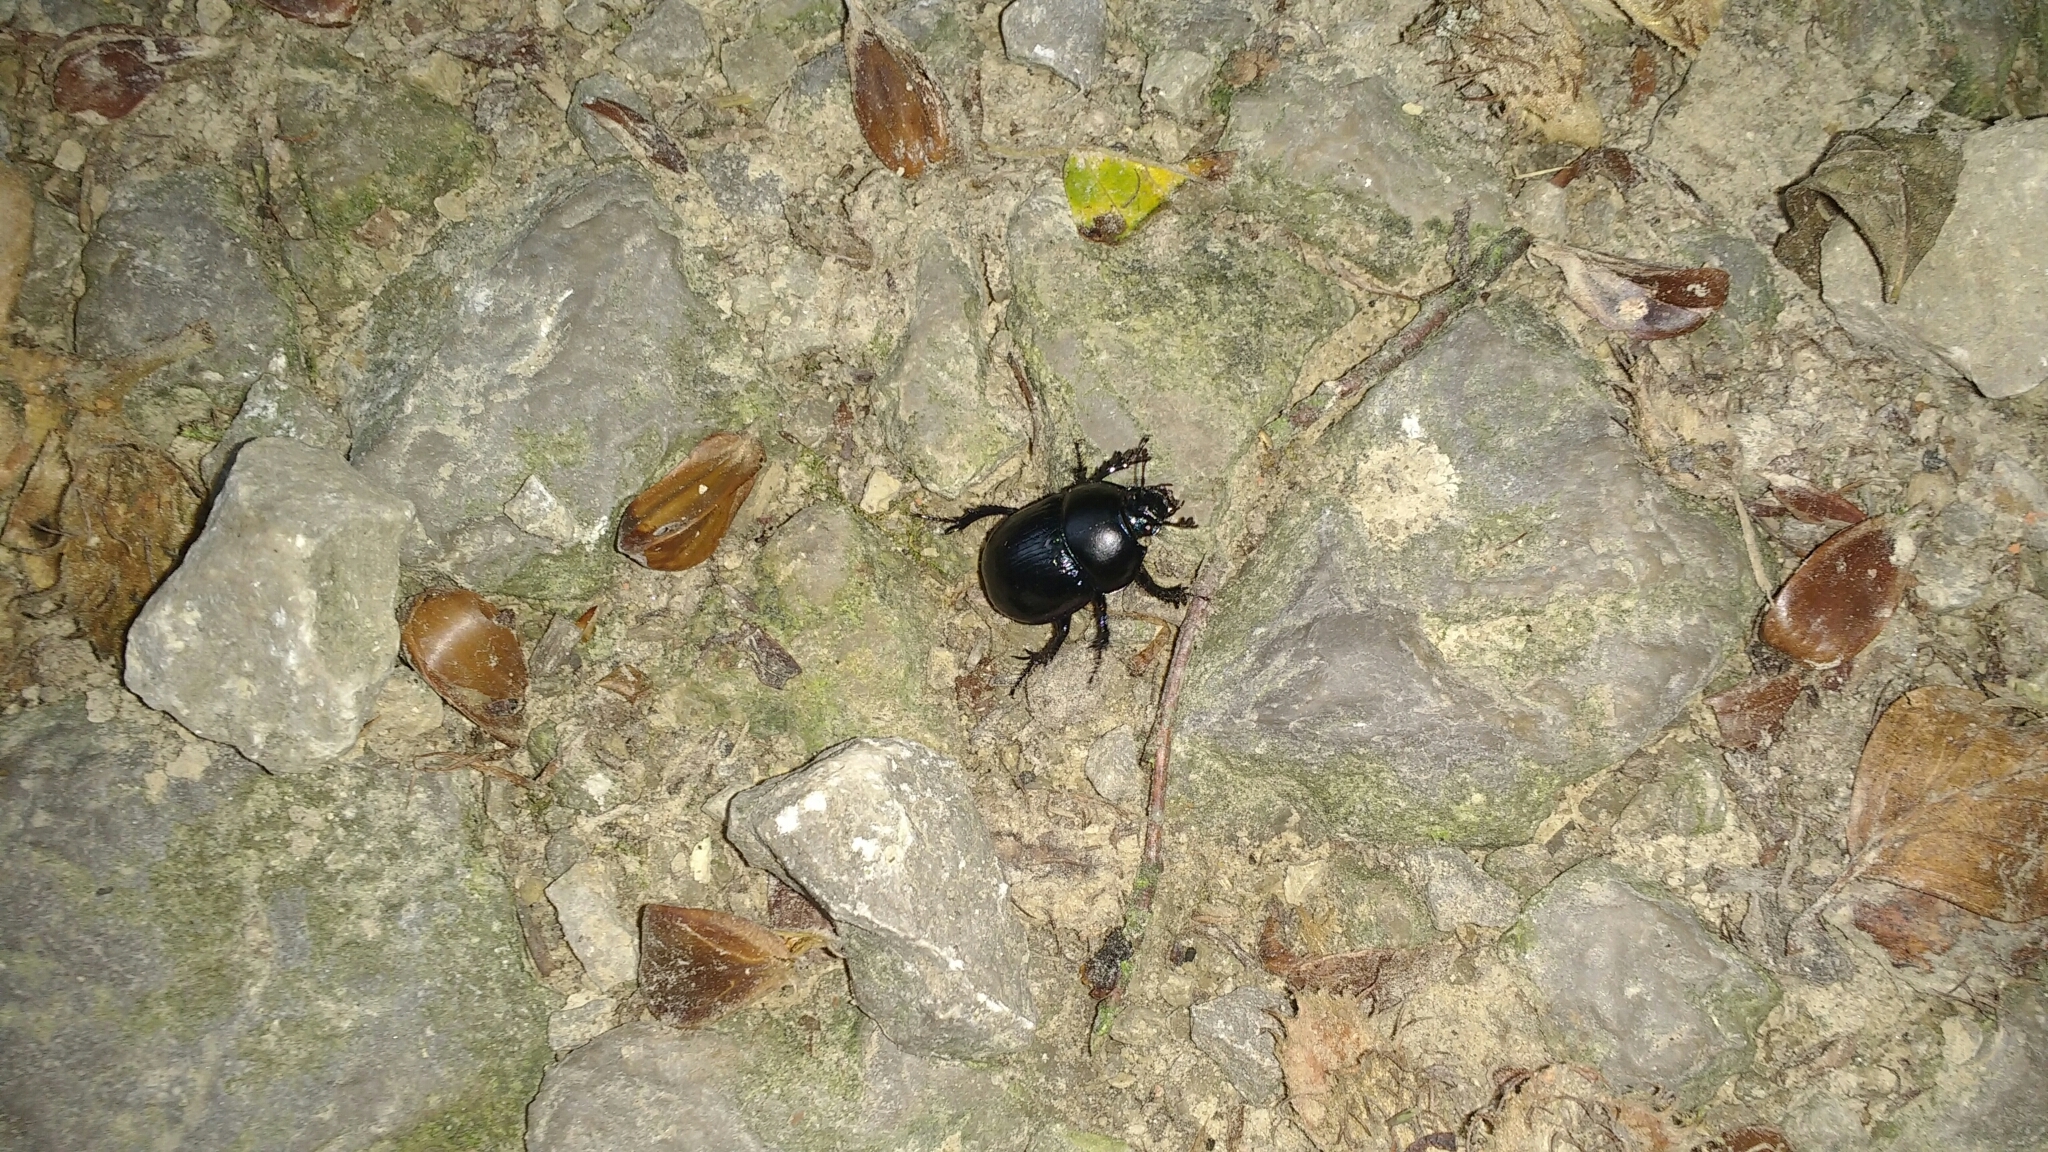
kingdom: Animalia
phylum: Arthropoda
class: Insecta
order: Coleoptera
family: Geotrupidae
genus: Anoplotrupes
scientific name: Anoplotrupes stercorosus
